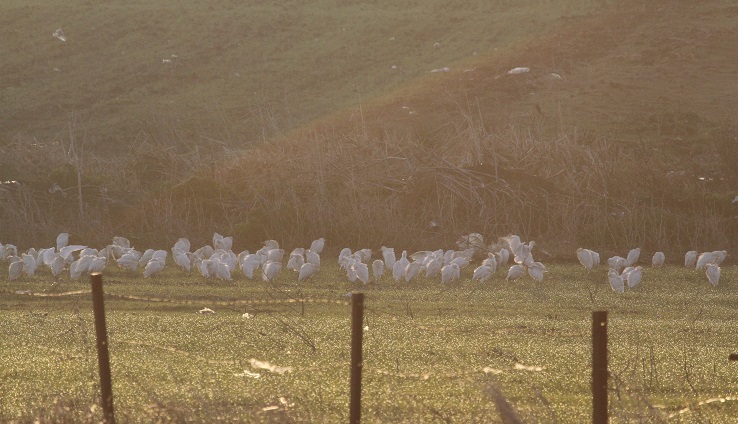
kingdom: Animalia
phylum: Chordata
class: Aves
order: Pelecaniformes
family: Ardeidae
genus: Bubulcus
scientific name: Bubulcus ibis
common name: Cattle egret
